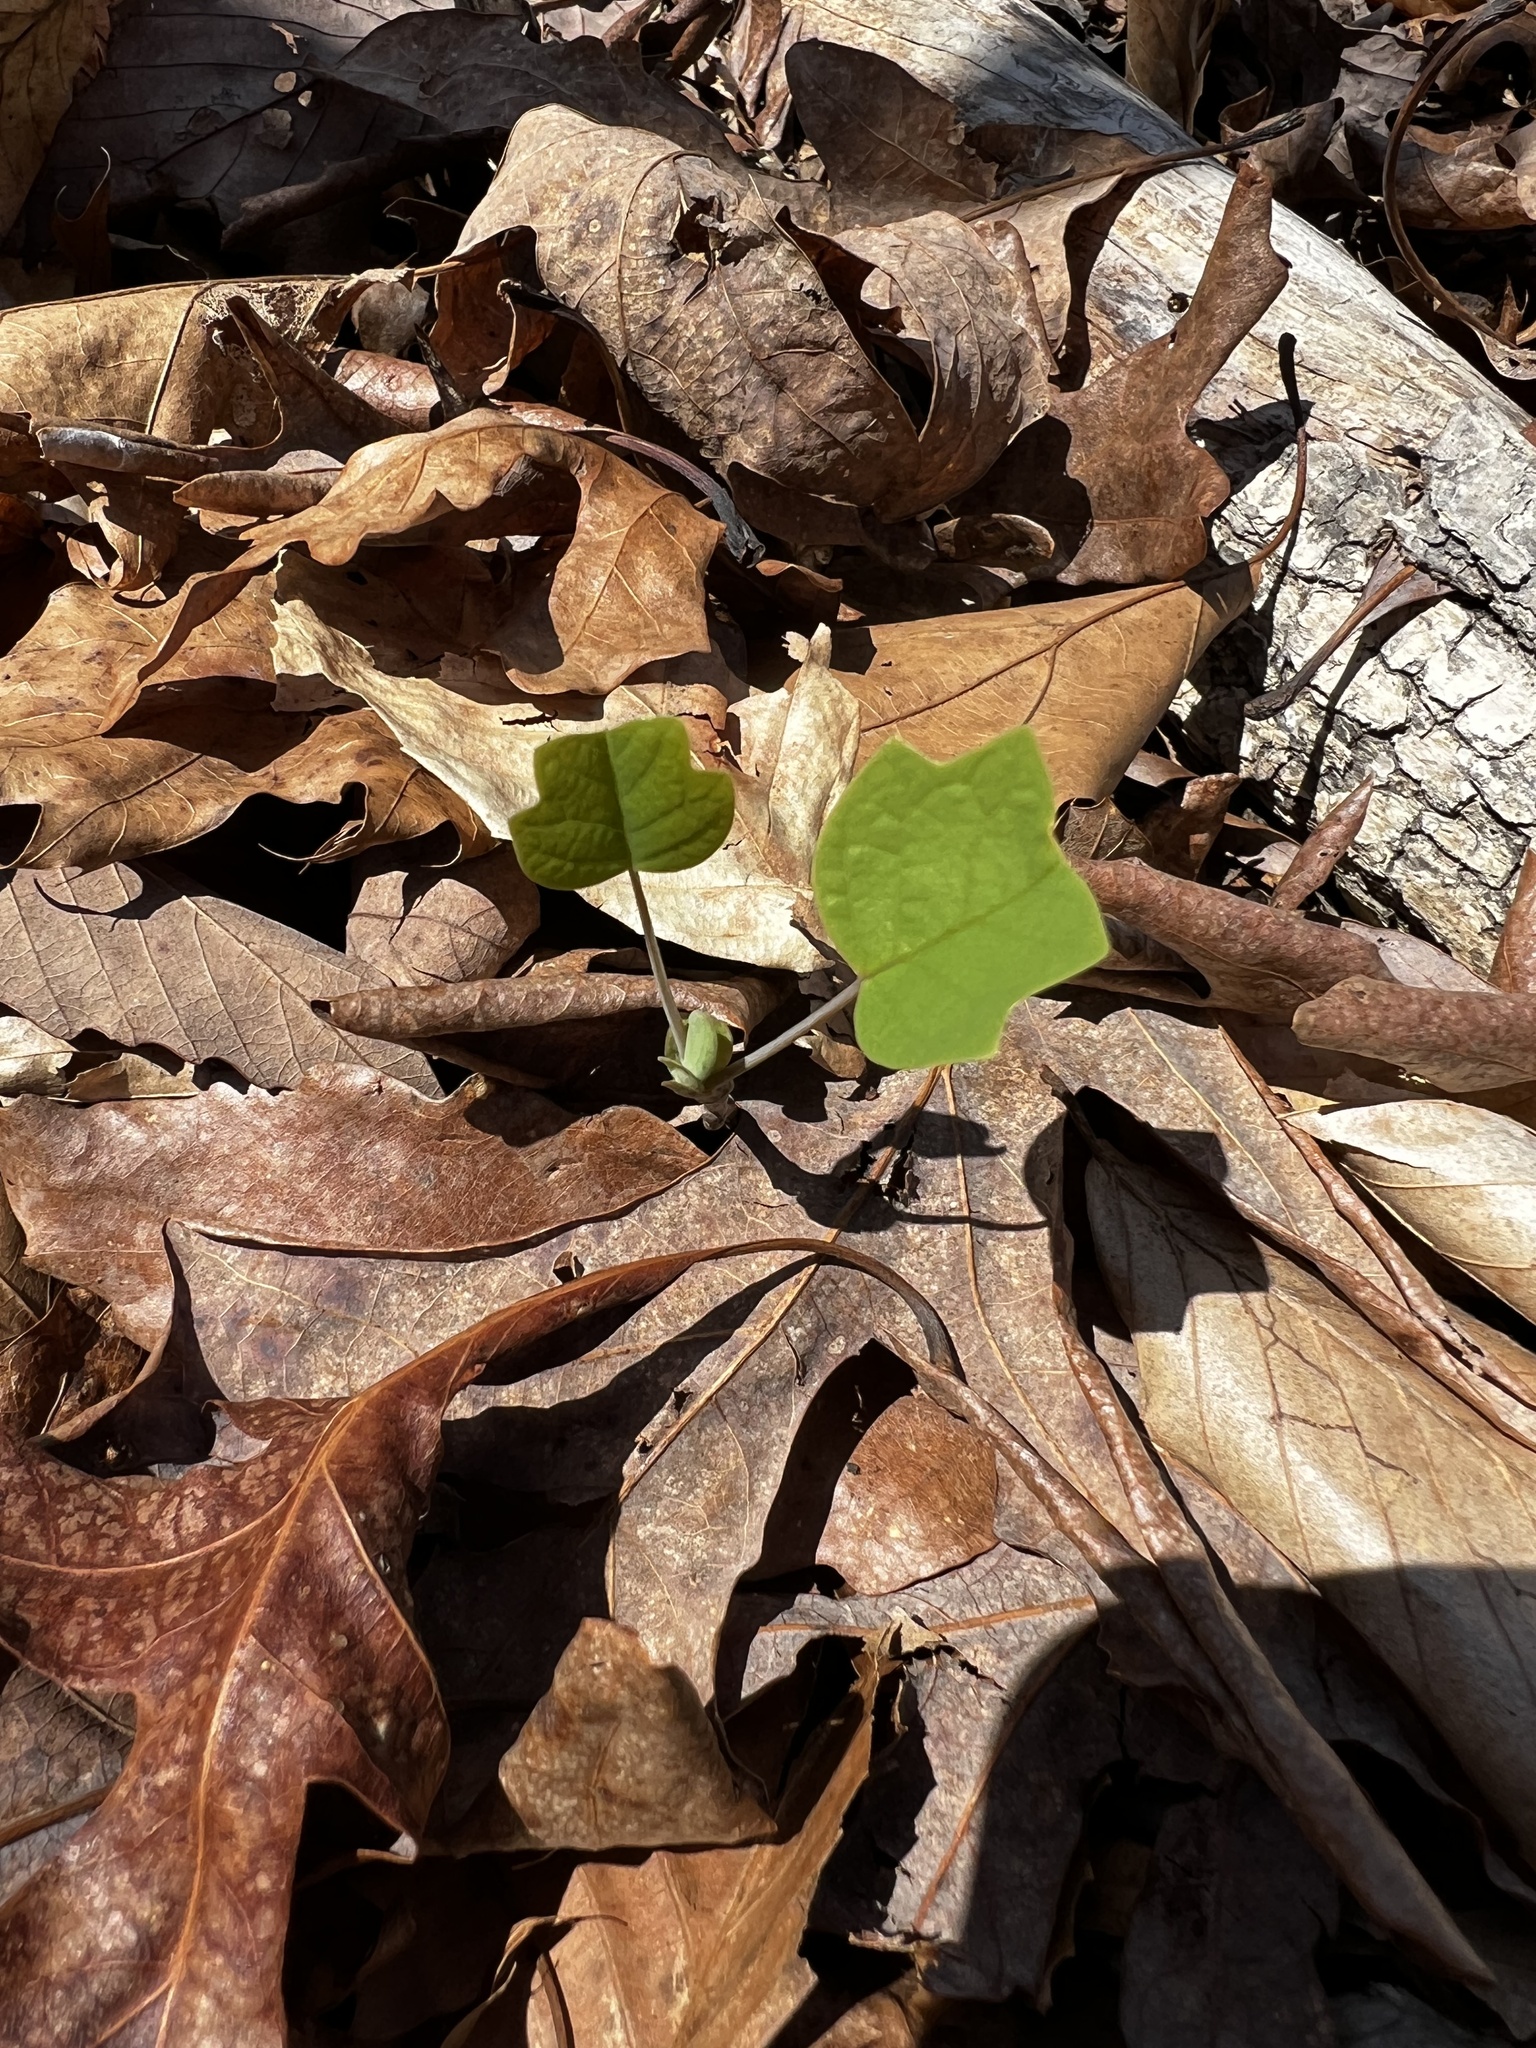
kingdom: Plantae
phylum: Tracheophyta
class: Magnoliopsida
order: Magnoliales
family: Magnoliaceae
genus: Liriodendron
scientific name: Liriodendron tulipifera
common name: Tulip tree
